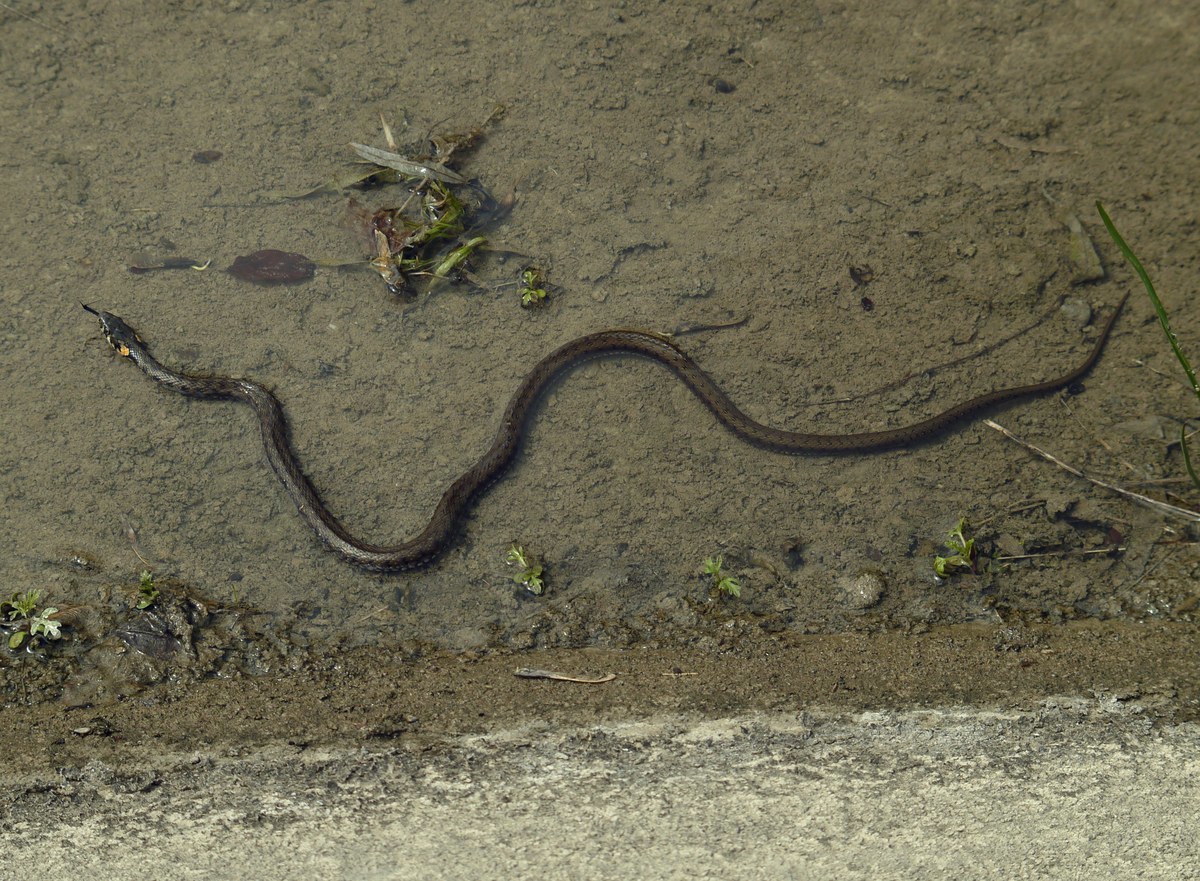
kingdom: Animalia
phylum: Chordata
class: Squamata
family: Colubridae
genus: Natrix
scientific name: Natrix natrix
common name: Grass snake
